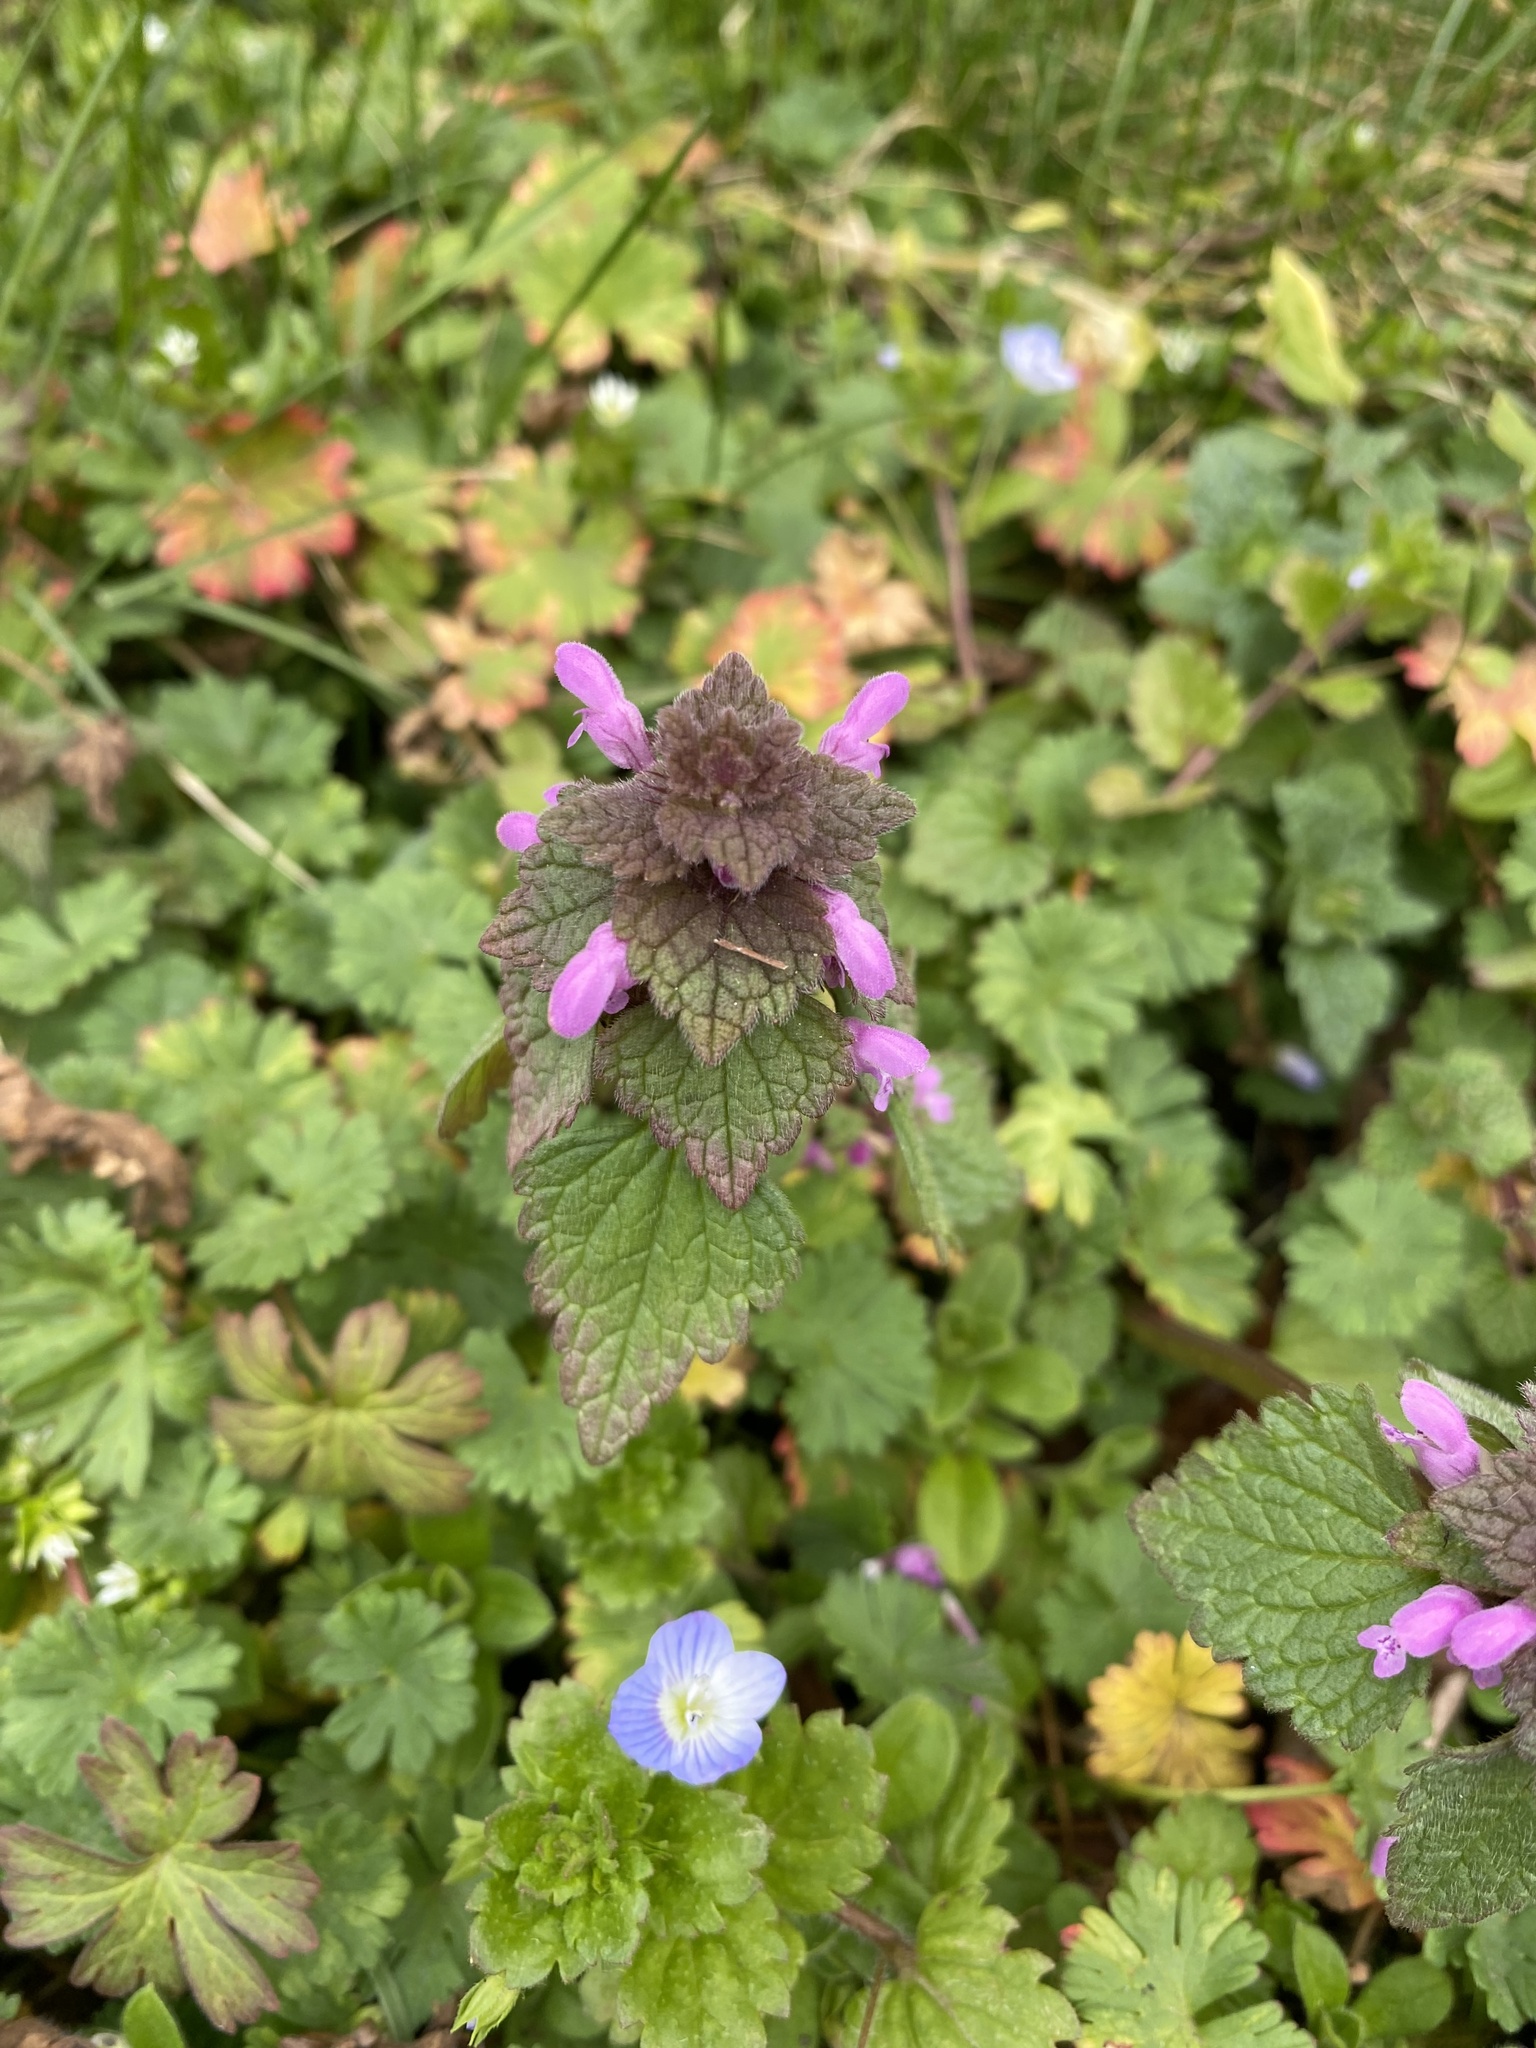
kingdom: Plantae
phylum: Tracheophyta
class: Magnoliopsida
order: Lamiales
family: Lamiaceae
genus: Lamium
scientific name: Lamium purpureum
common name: Red dead-nettle
